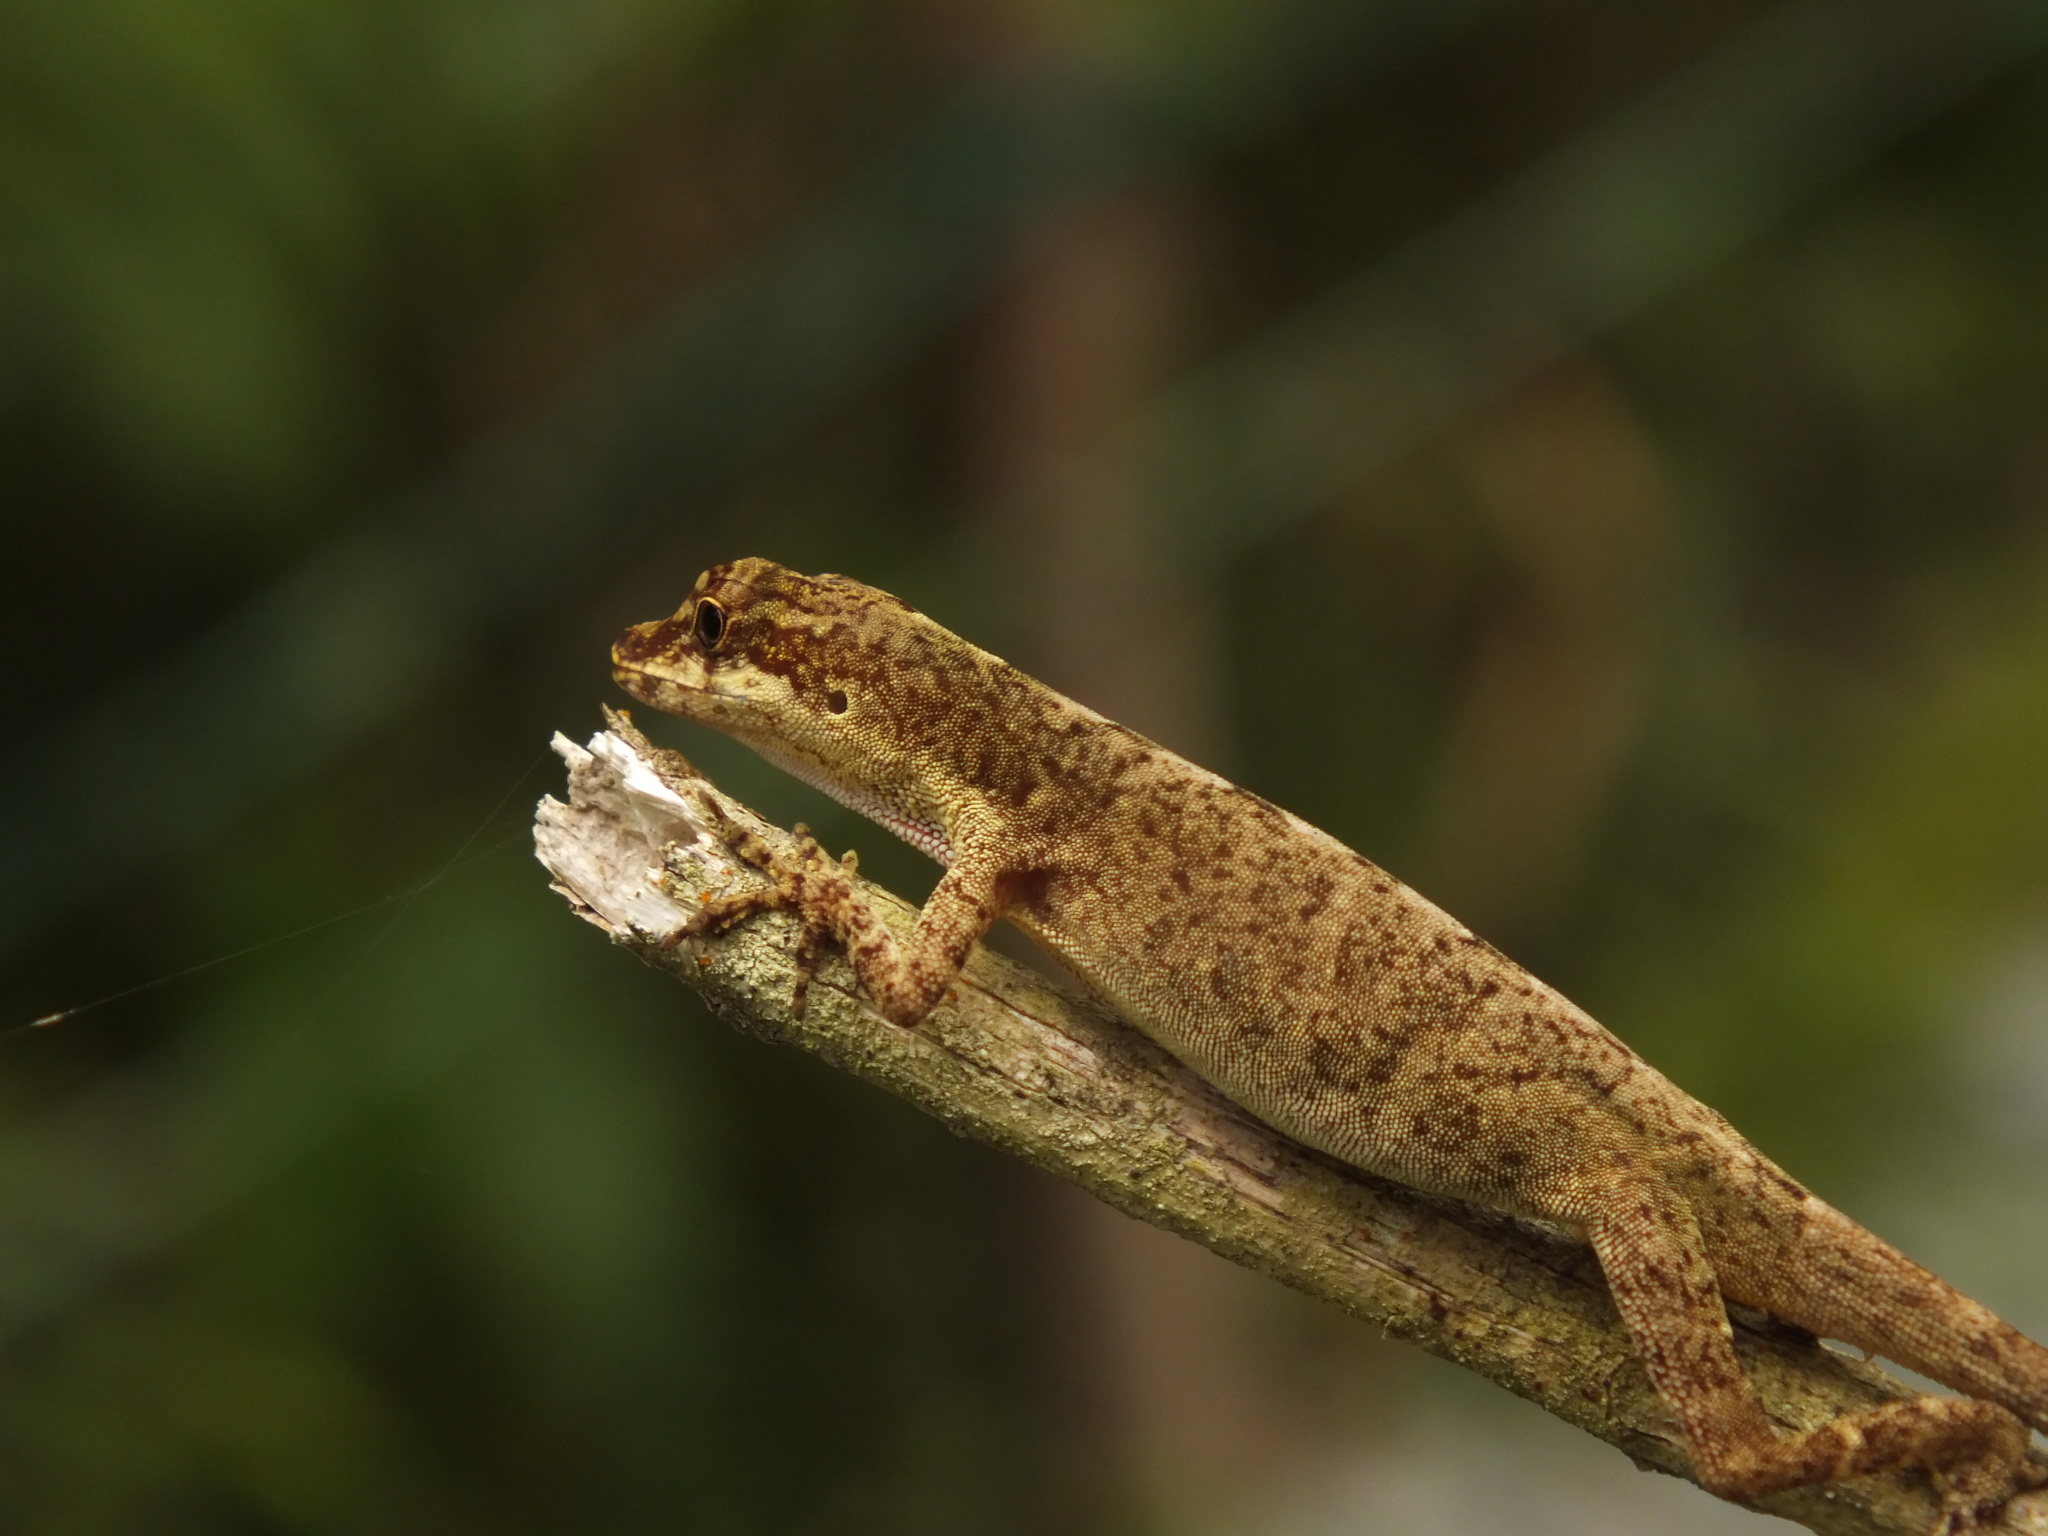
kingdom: Animalia
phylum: Chordata
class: Squamata
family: Dactyloidae
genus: Anolis
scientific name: Anolis fuscoauratus
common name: Brown-eared anole
